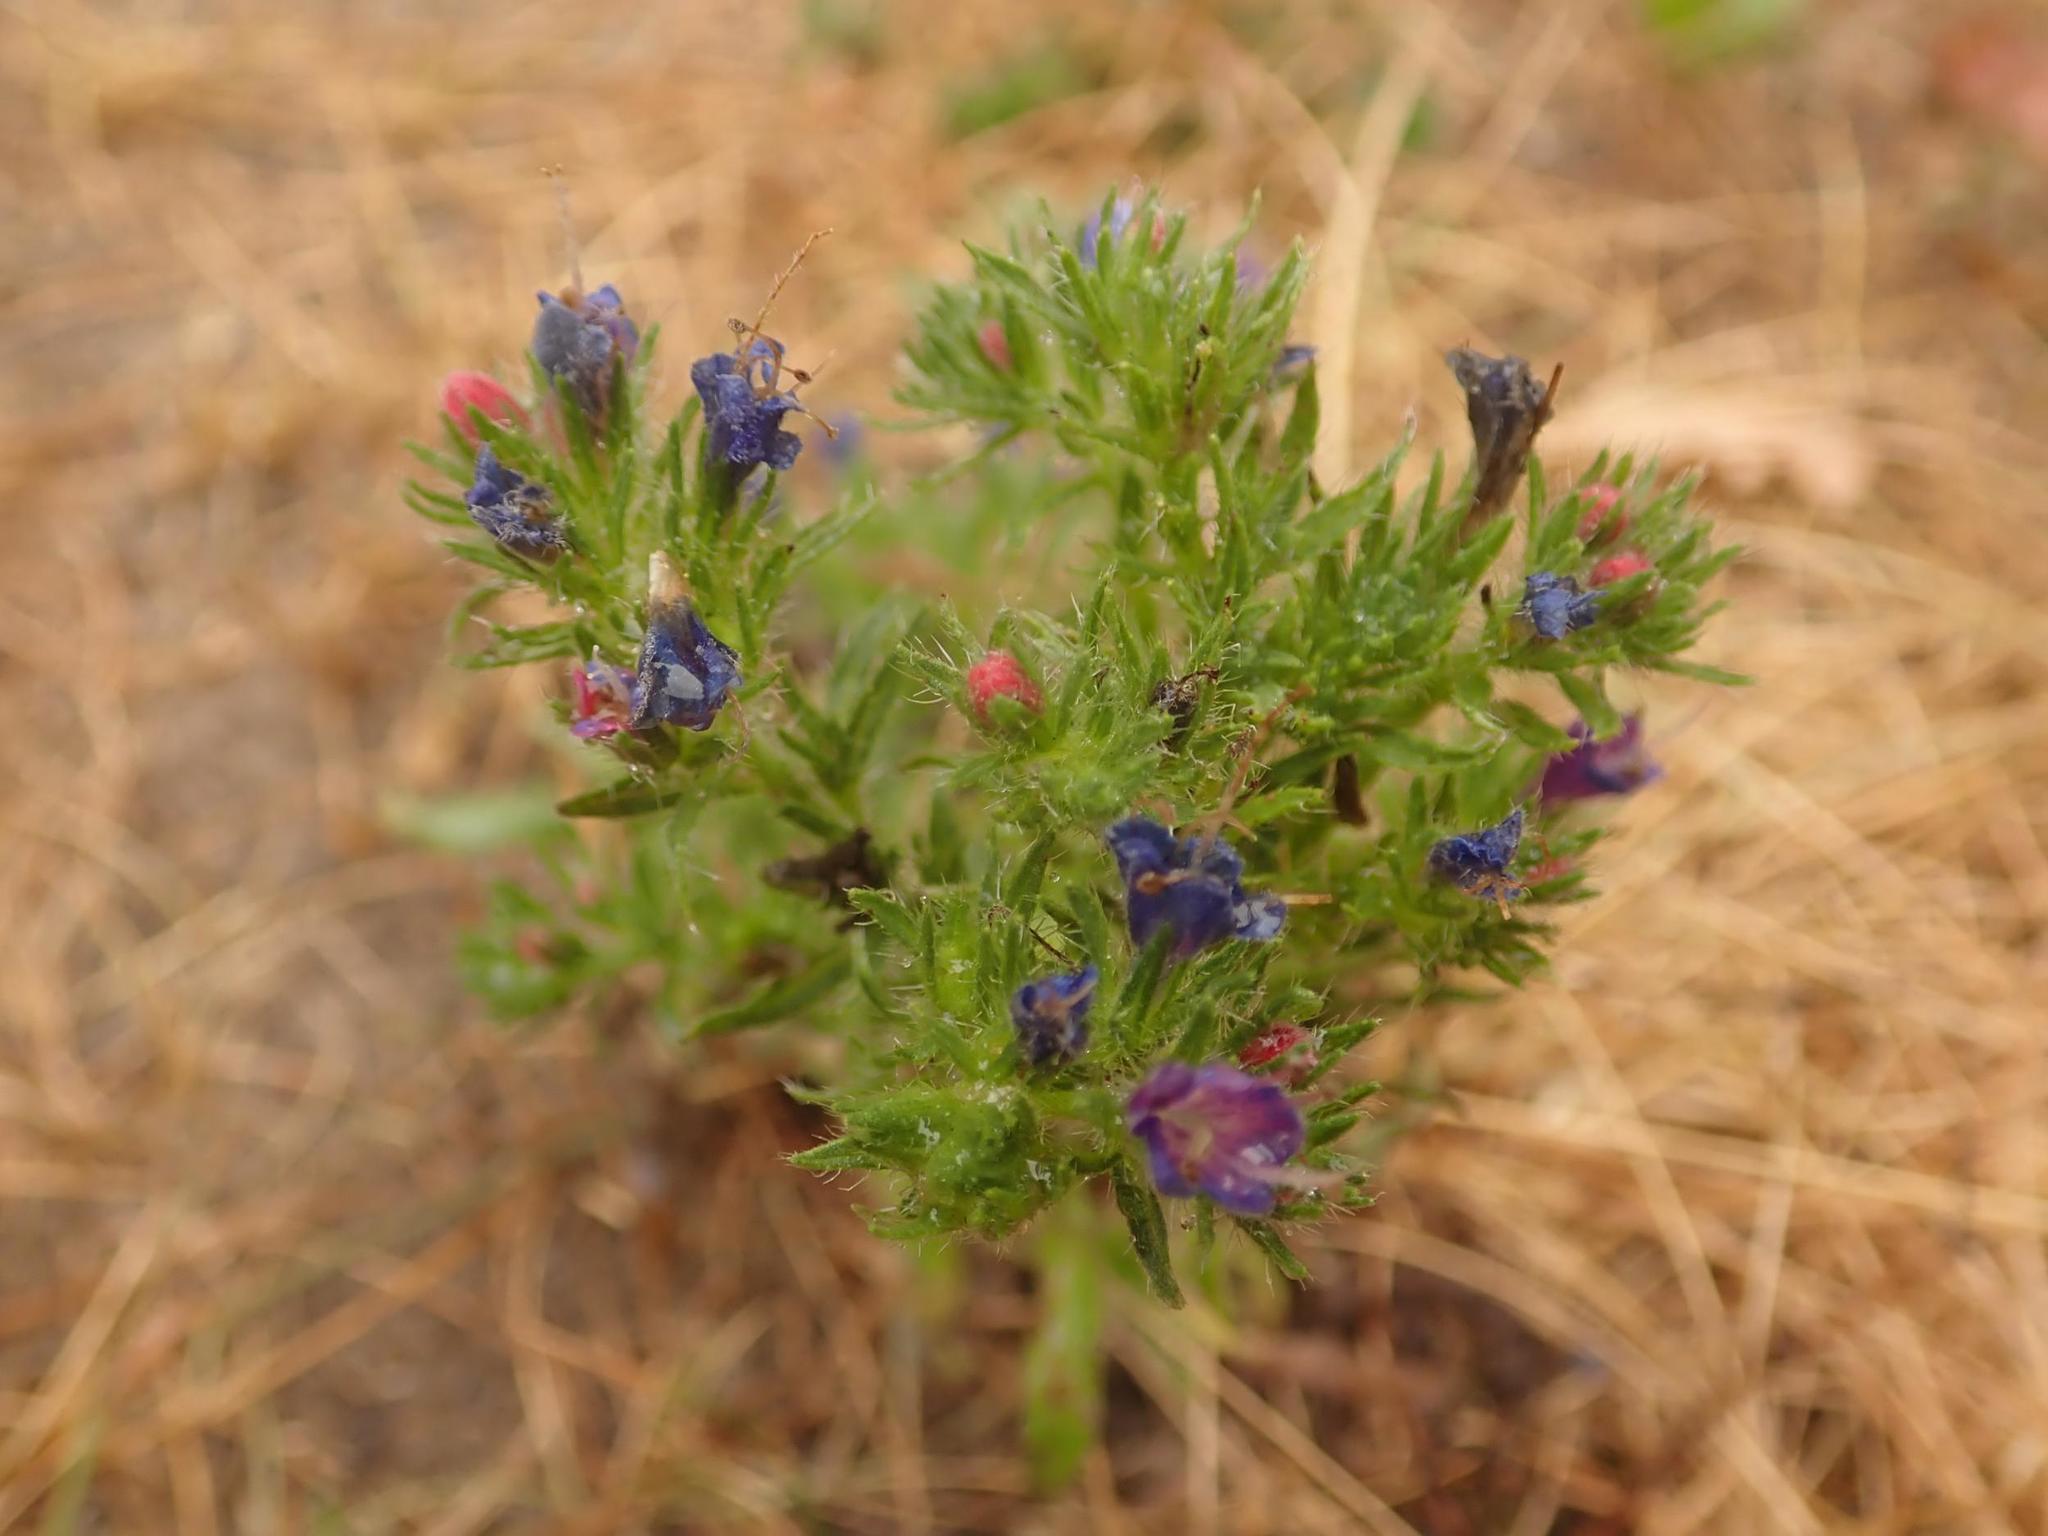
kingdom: Plantae
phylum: Tracheophyta
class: Magnoliopsida
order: Boraginales
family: Boraginaceae
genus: Echium
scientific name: Echium vulgare
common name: Common viper's bugloss
